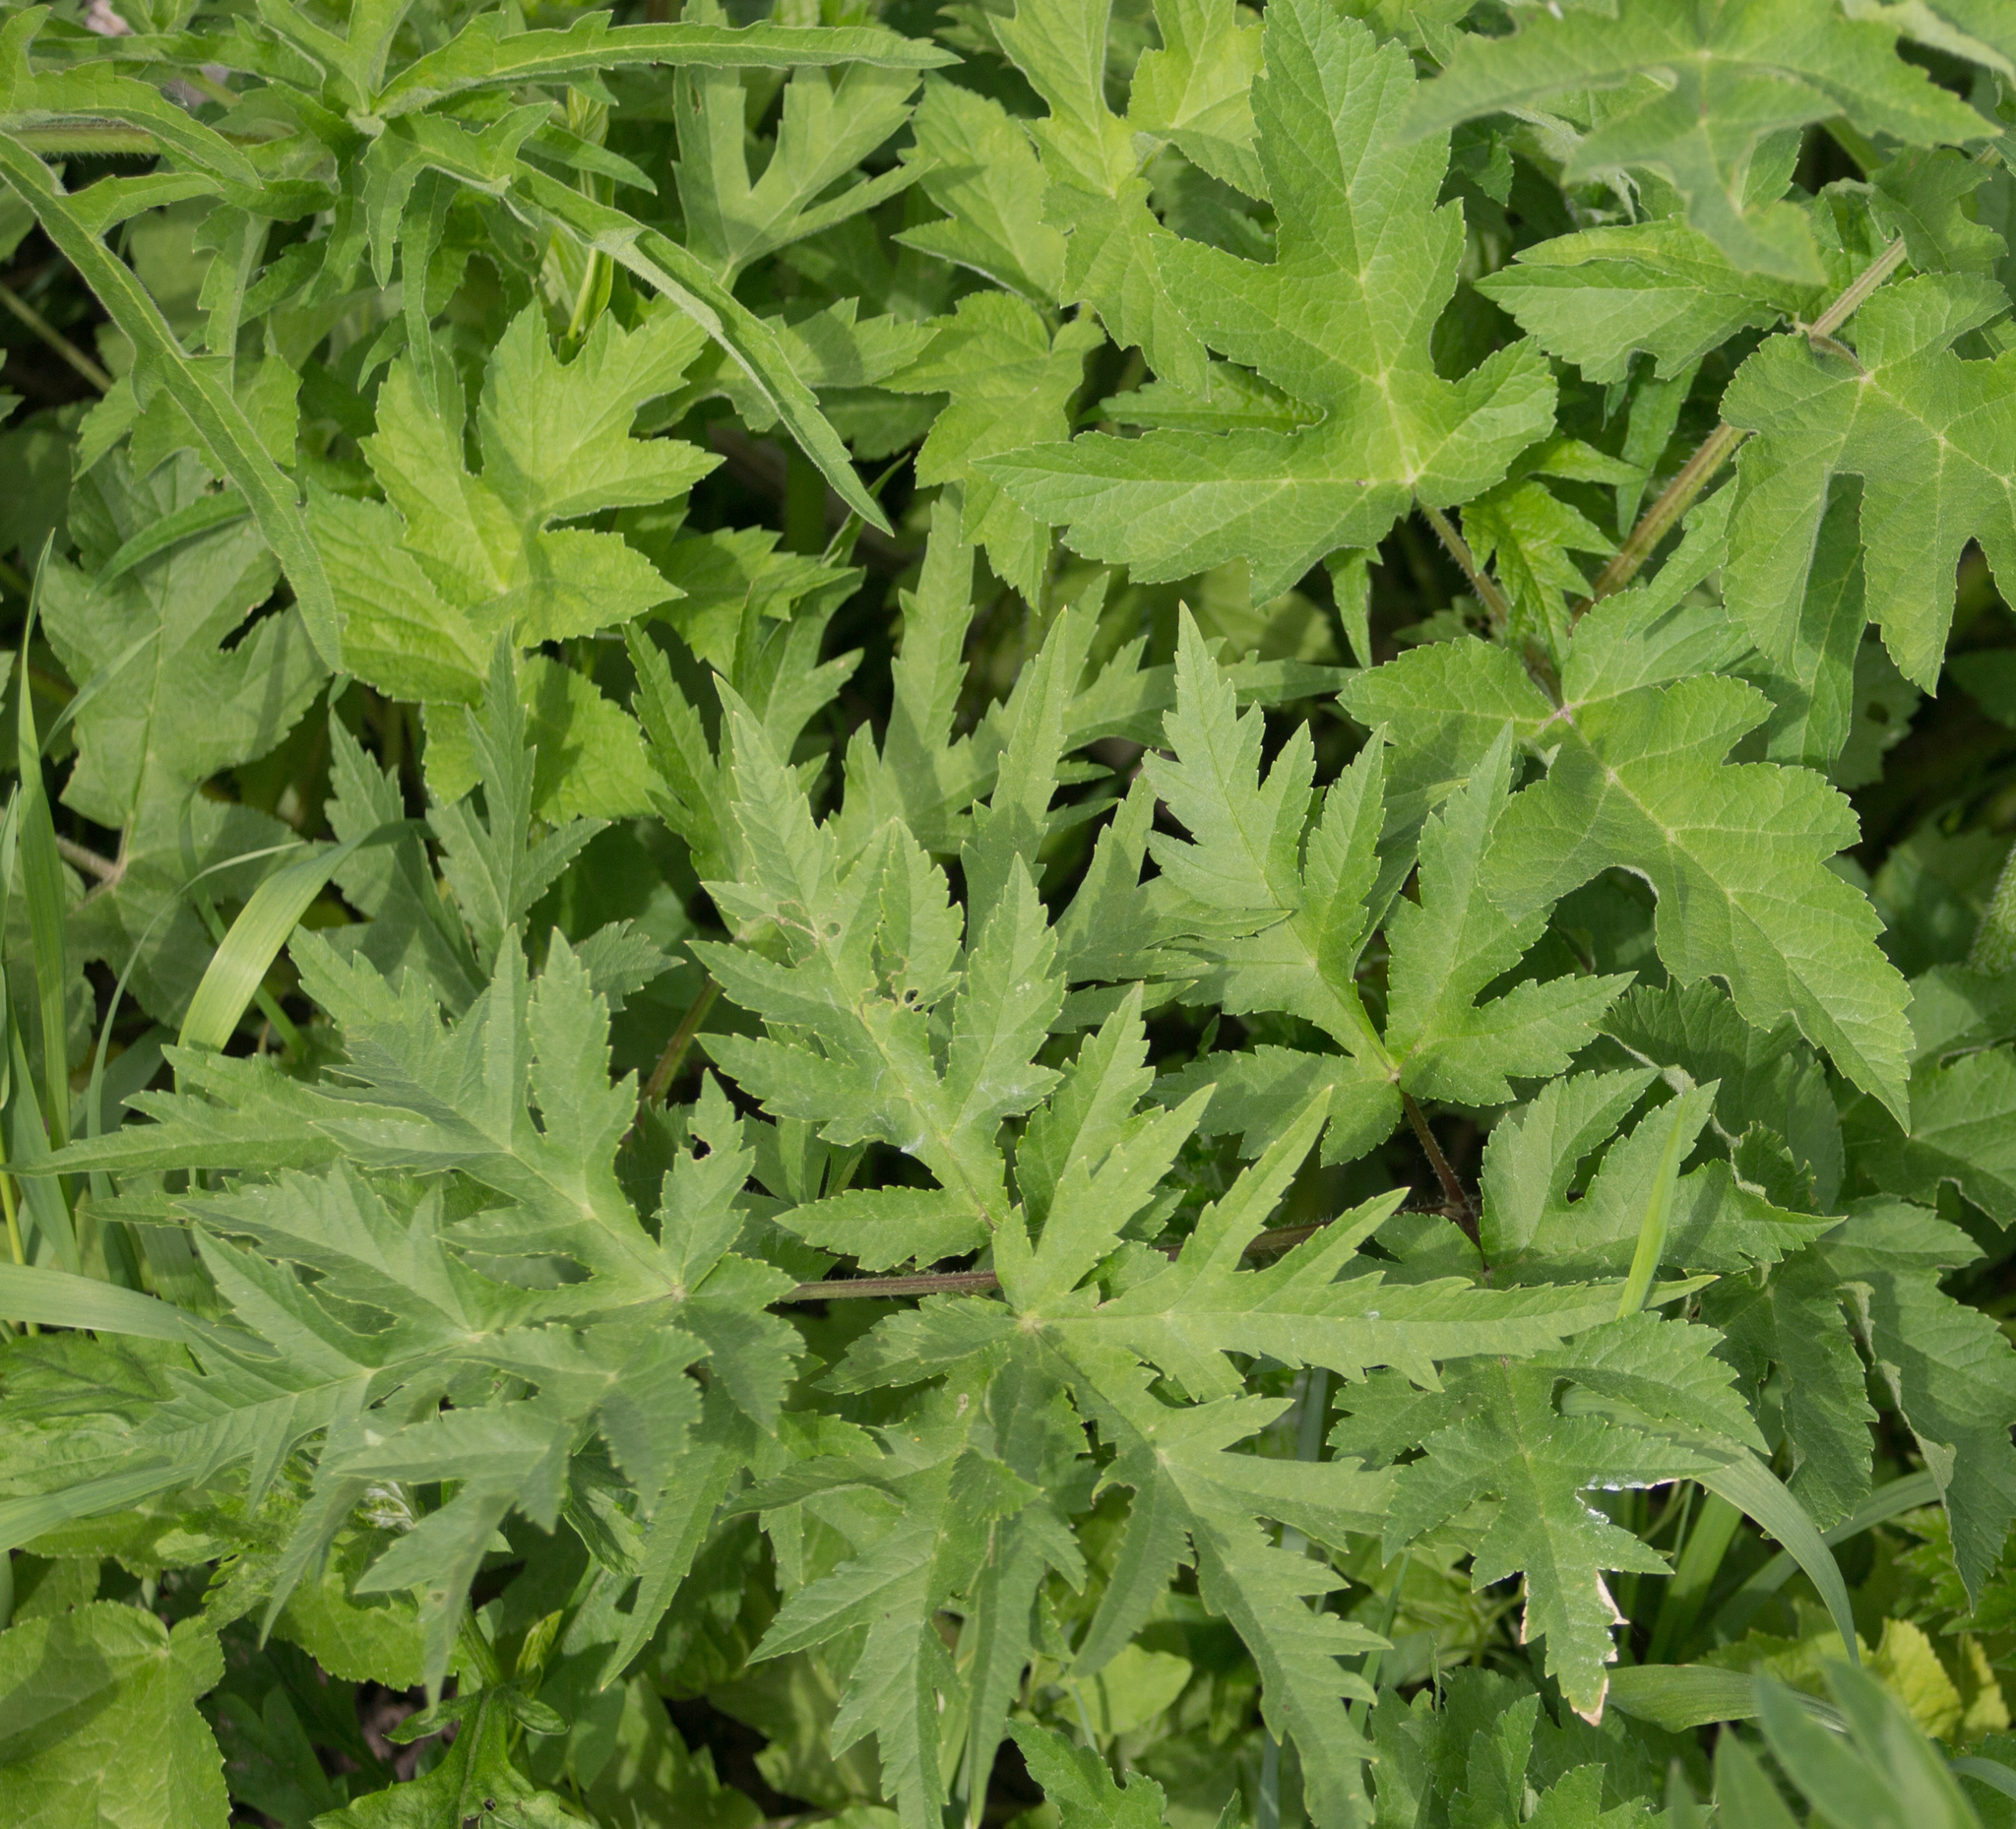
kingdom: Plantae
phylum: Tracheophyta
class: Magnoliopsida
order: Apiales
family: Apiaceae
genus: Heracleum
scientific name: Heracleum sphondylium
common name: Hogweed
